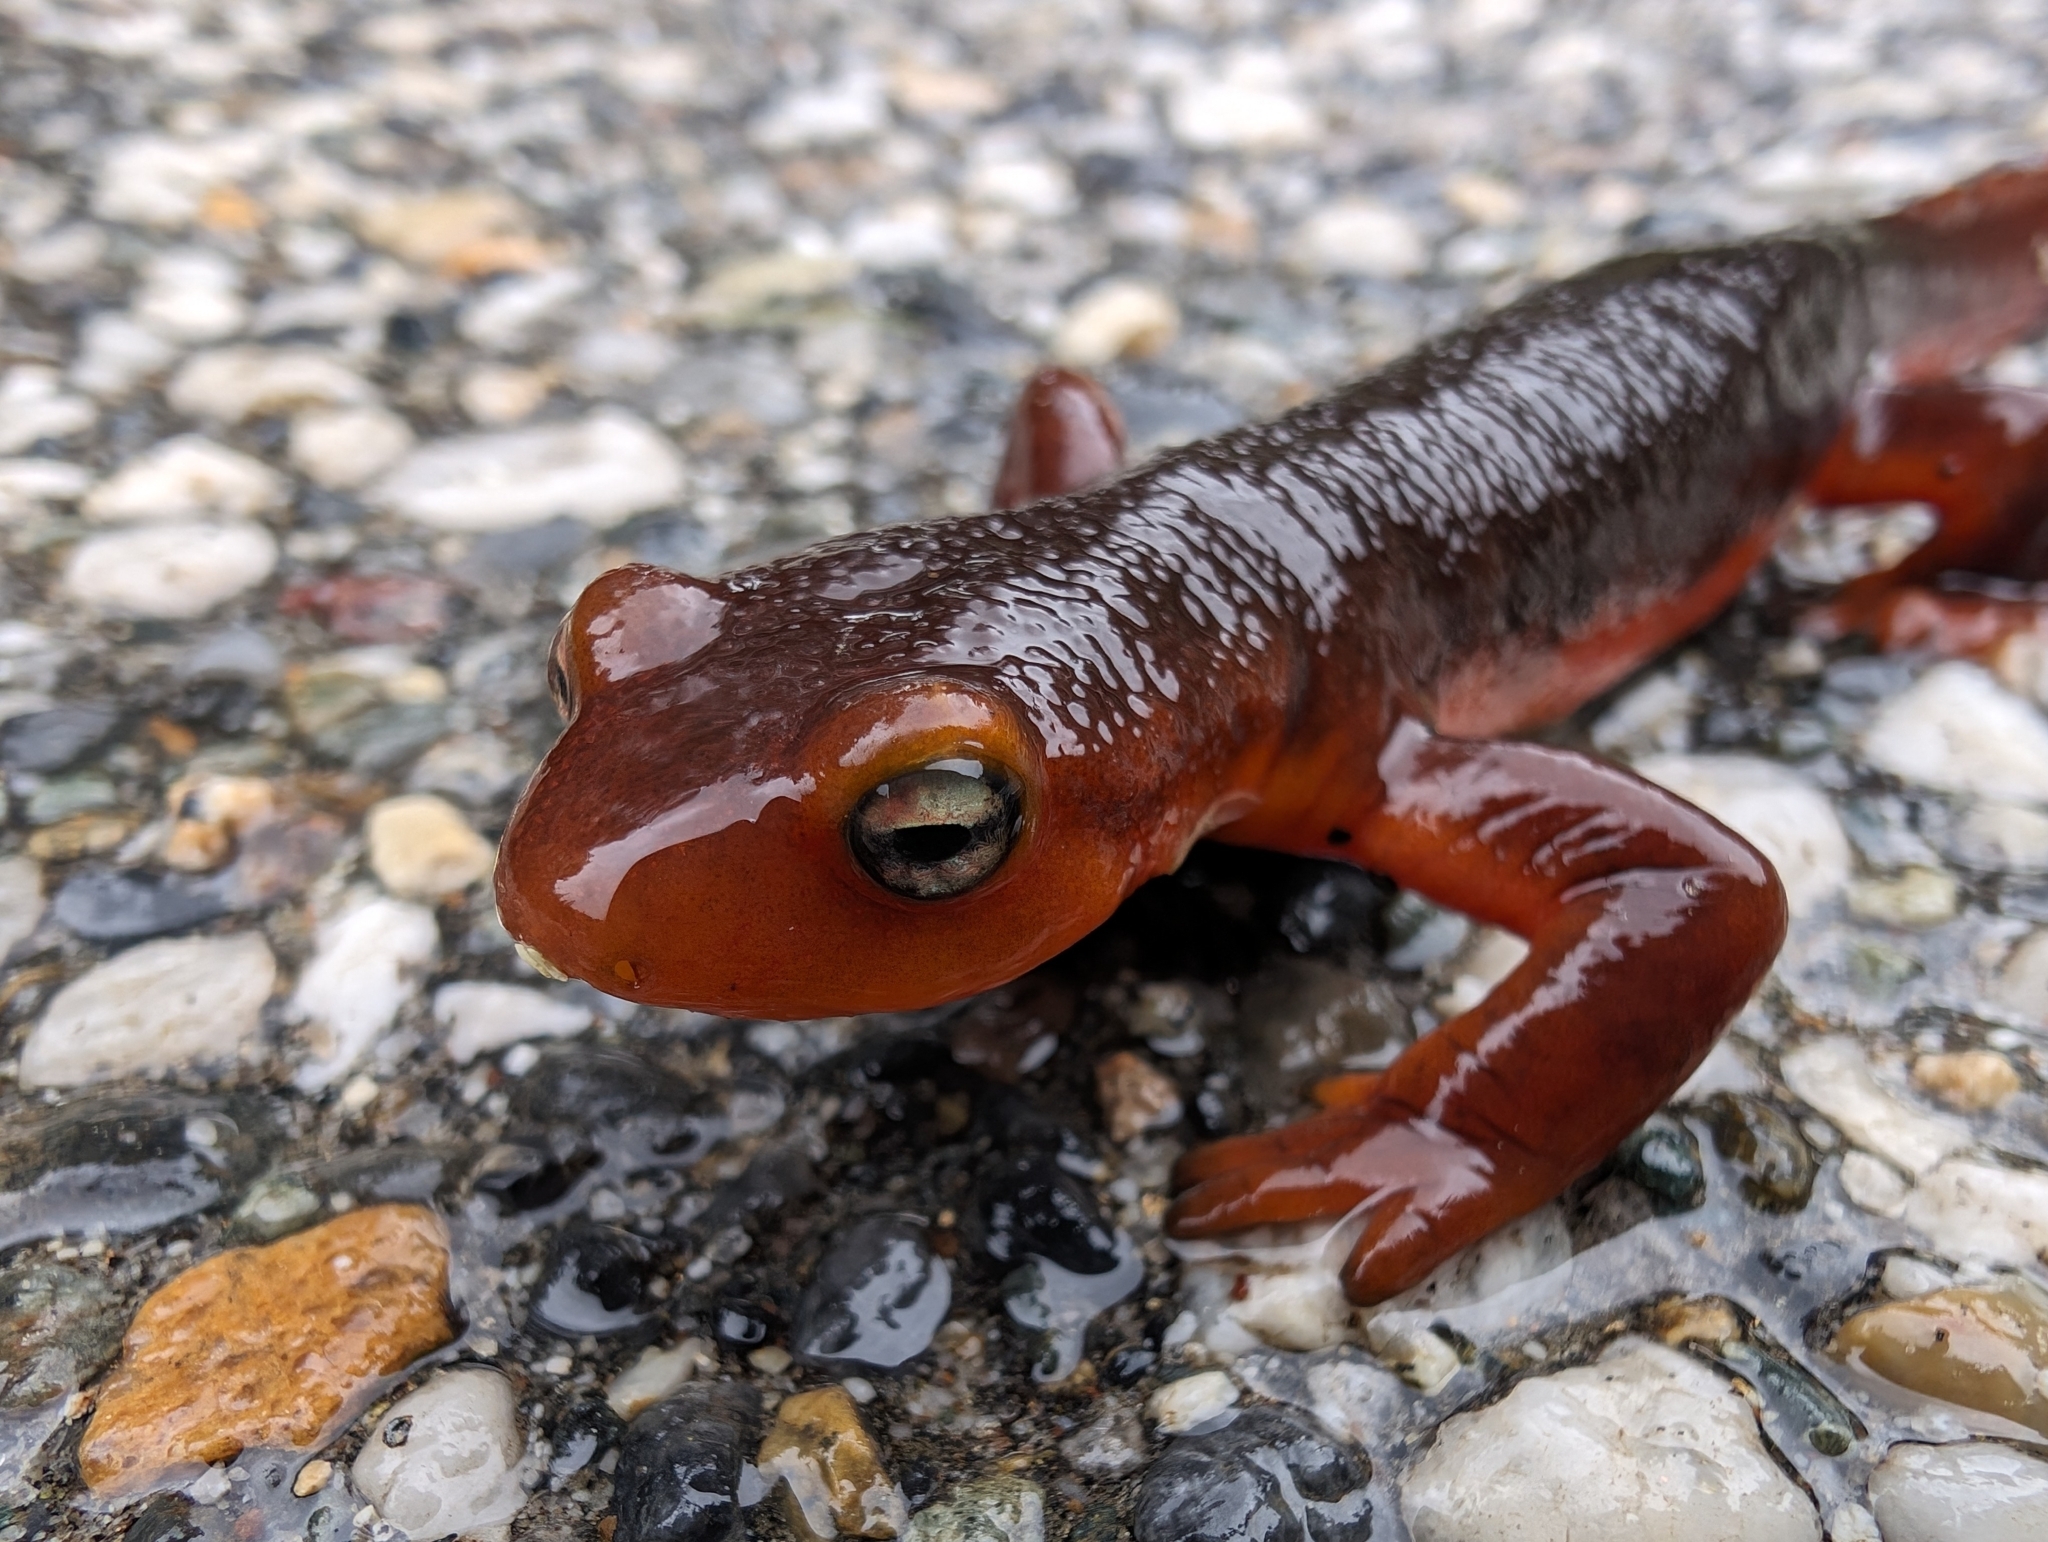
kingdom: Animalia
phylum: Chordata
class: Amphibia
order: Caudata
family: Salamandridae
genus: Taricha
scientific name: Taricha sierrae
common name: Sierra newt
